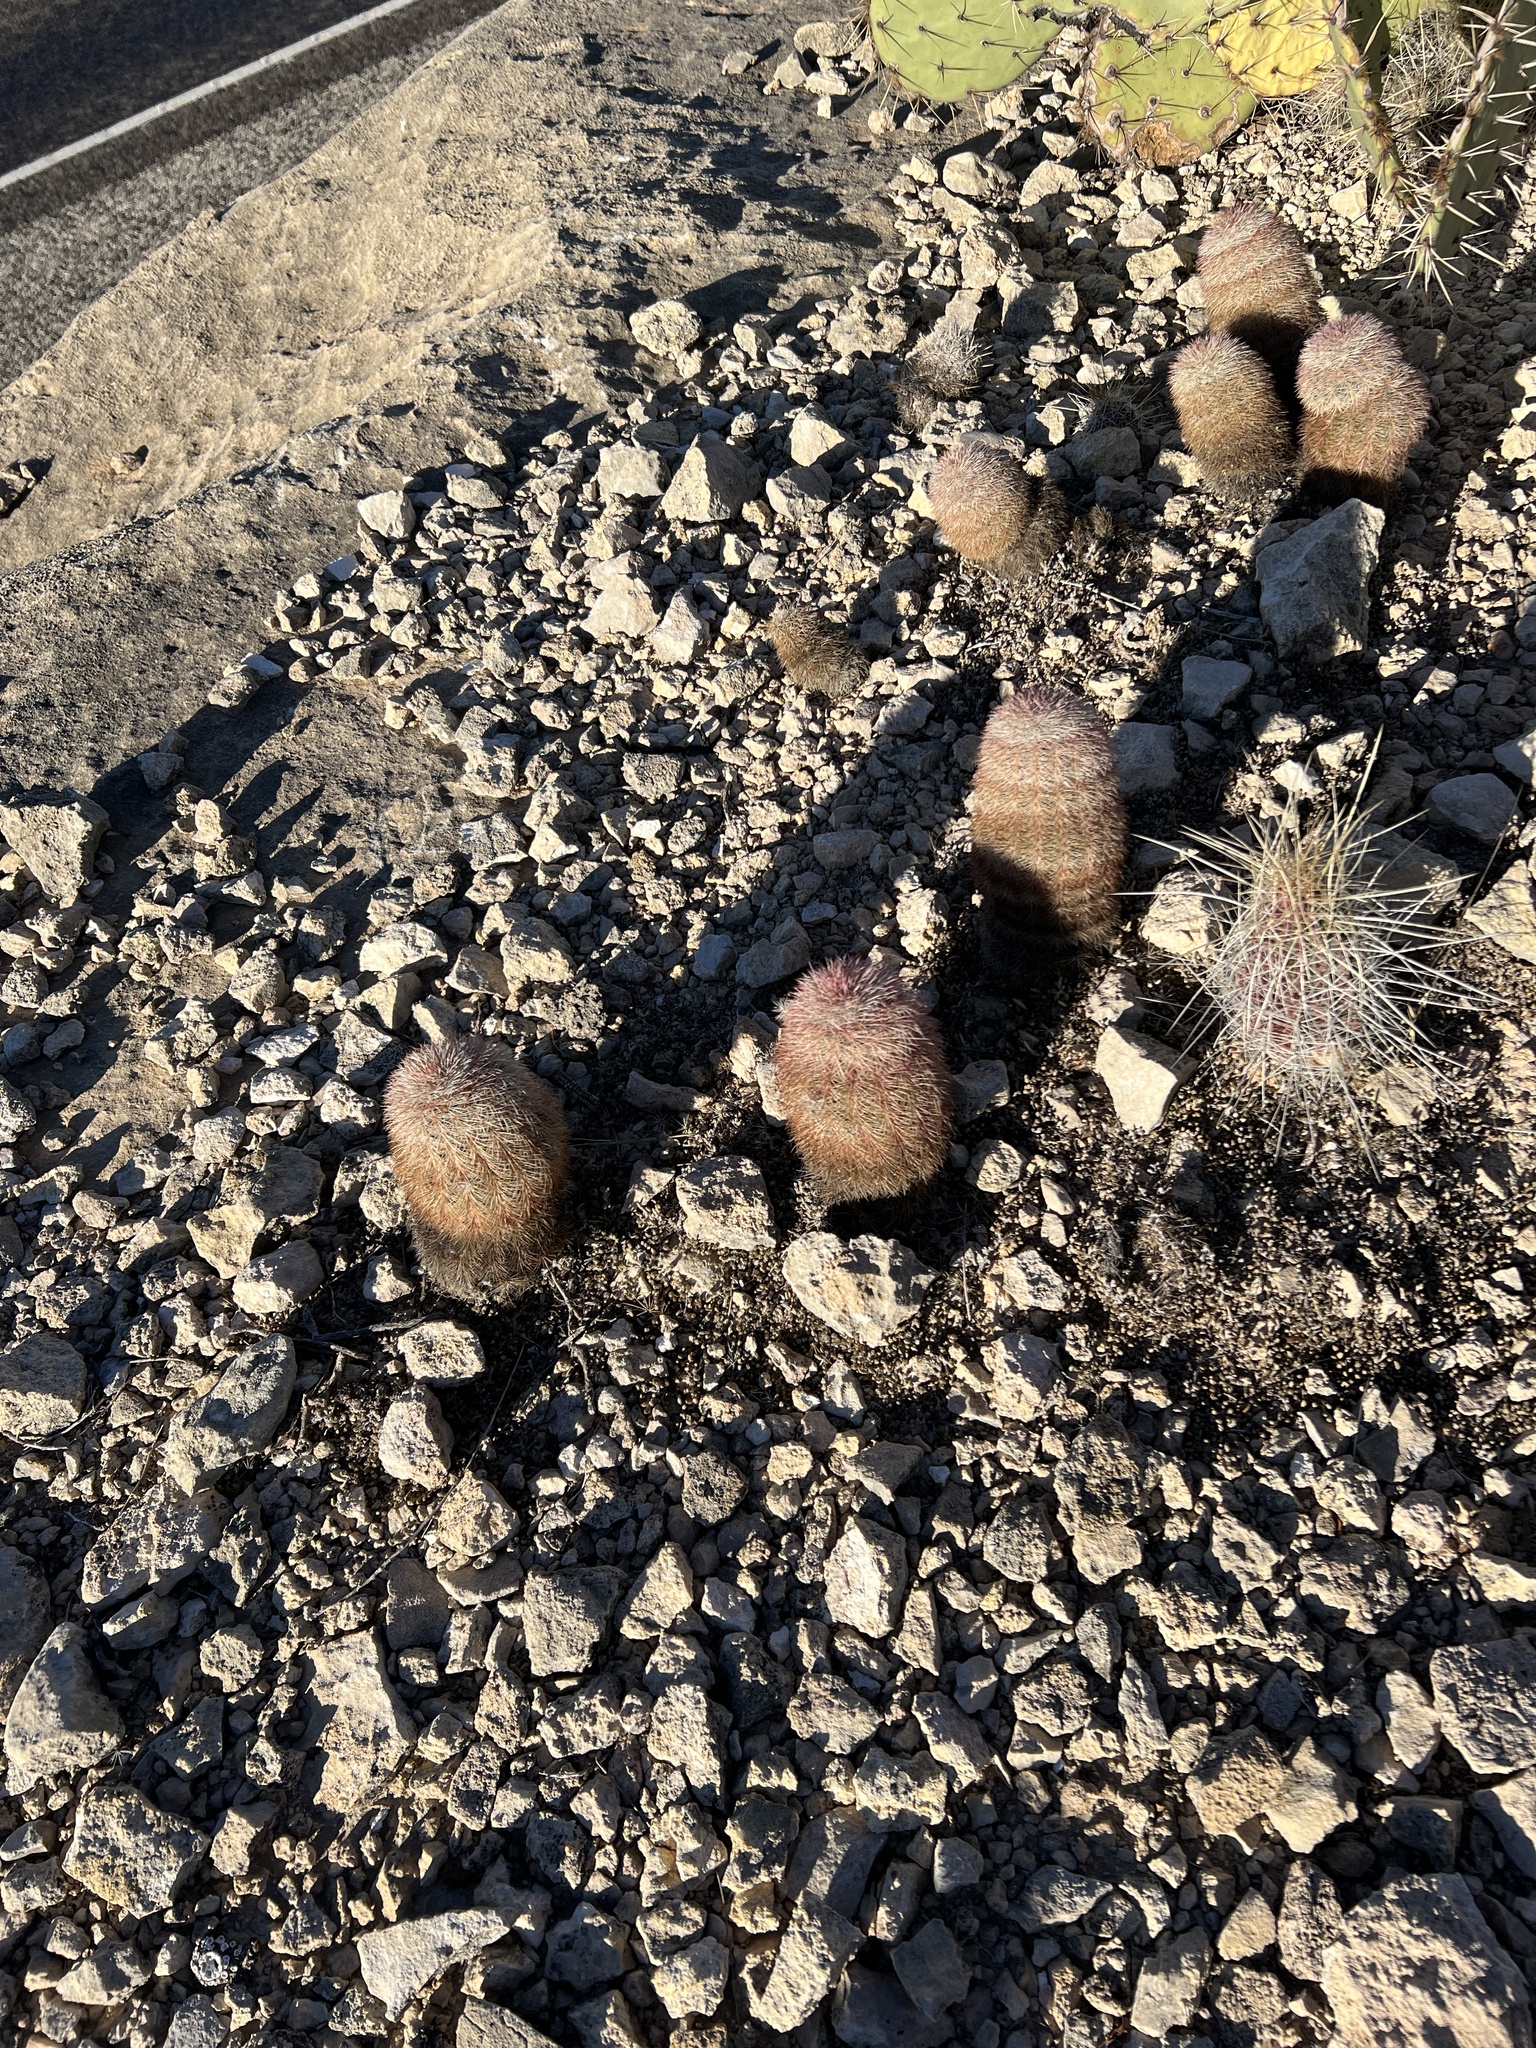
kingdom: Plantae
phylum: Tracheophyta
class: Magnoliopsida
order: Caryophyllales
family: Cactaceae
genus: Echinocereus
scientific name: Echinocereus dasyacanthus
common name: Spiny hedgehog cactus
